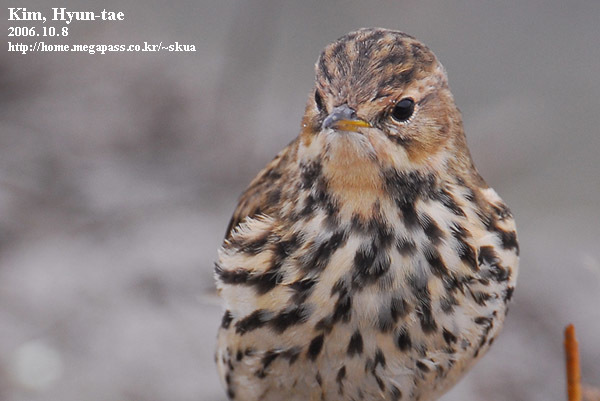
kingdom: Animalia
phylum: Chordata
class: Aves
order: Passeriformes
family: Motacillidae
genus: Anthus
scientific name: Anthus cervinus
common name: Red-throated pipit
